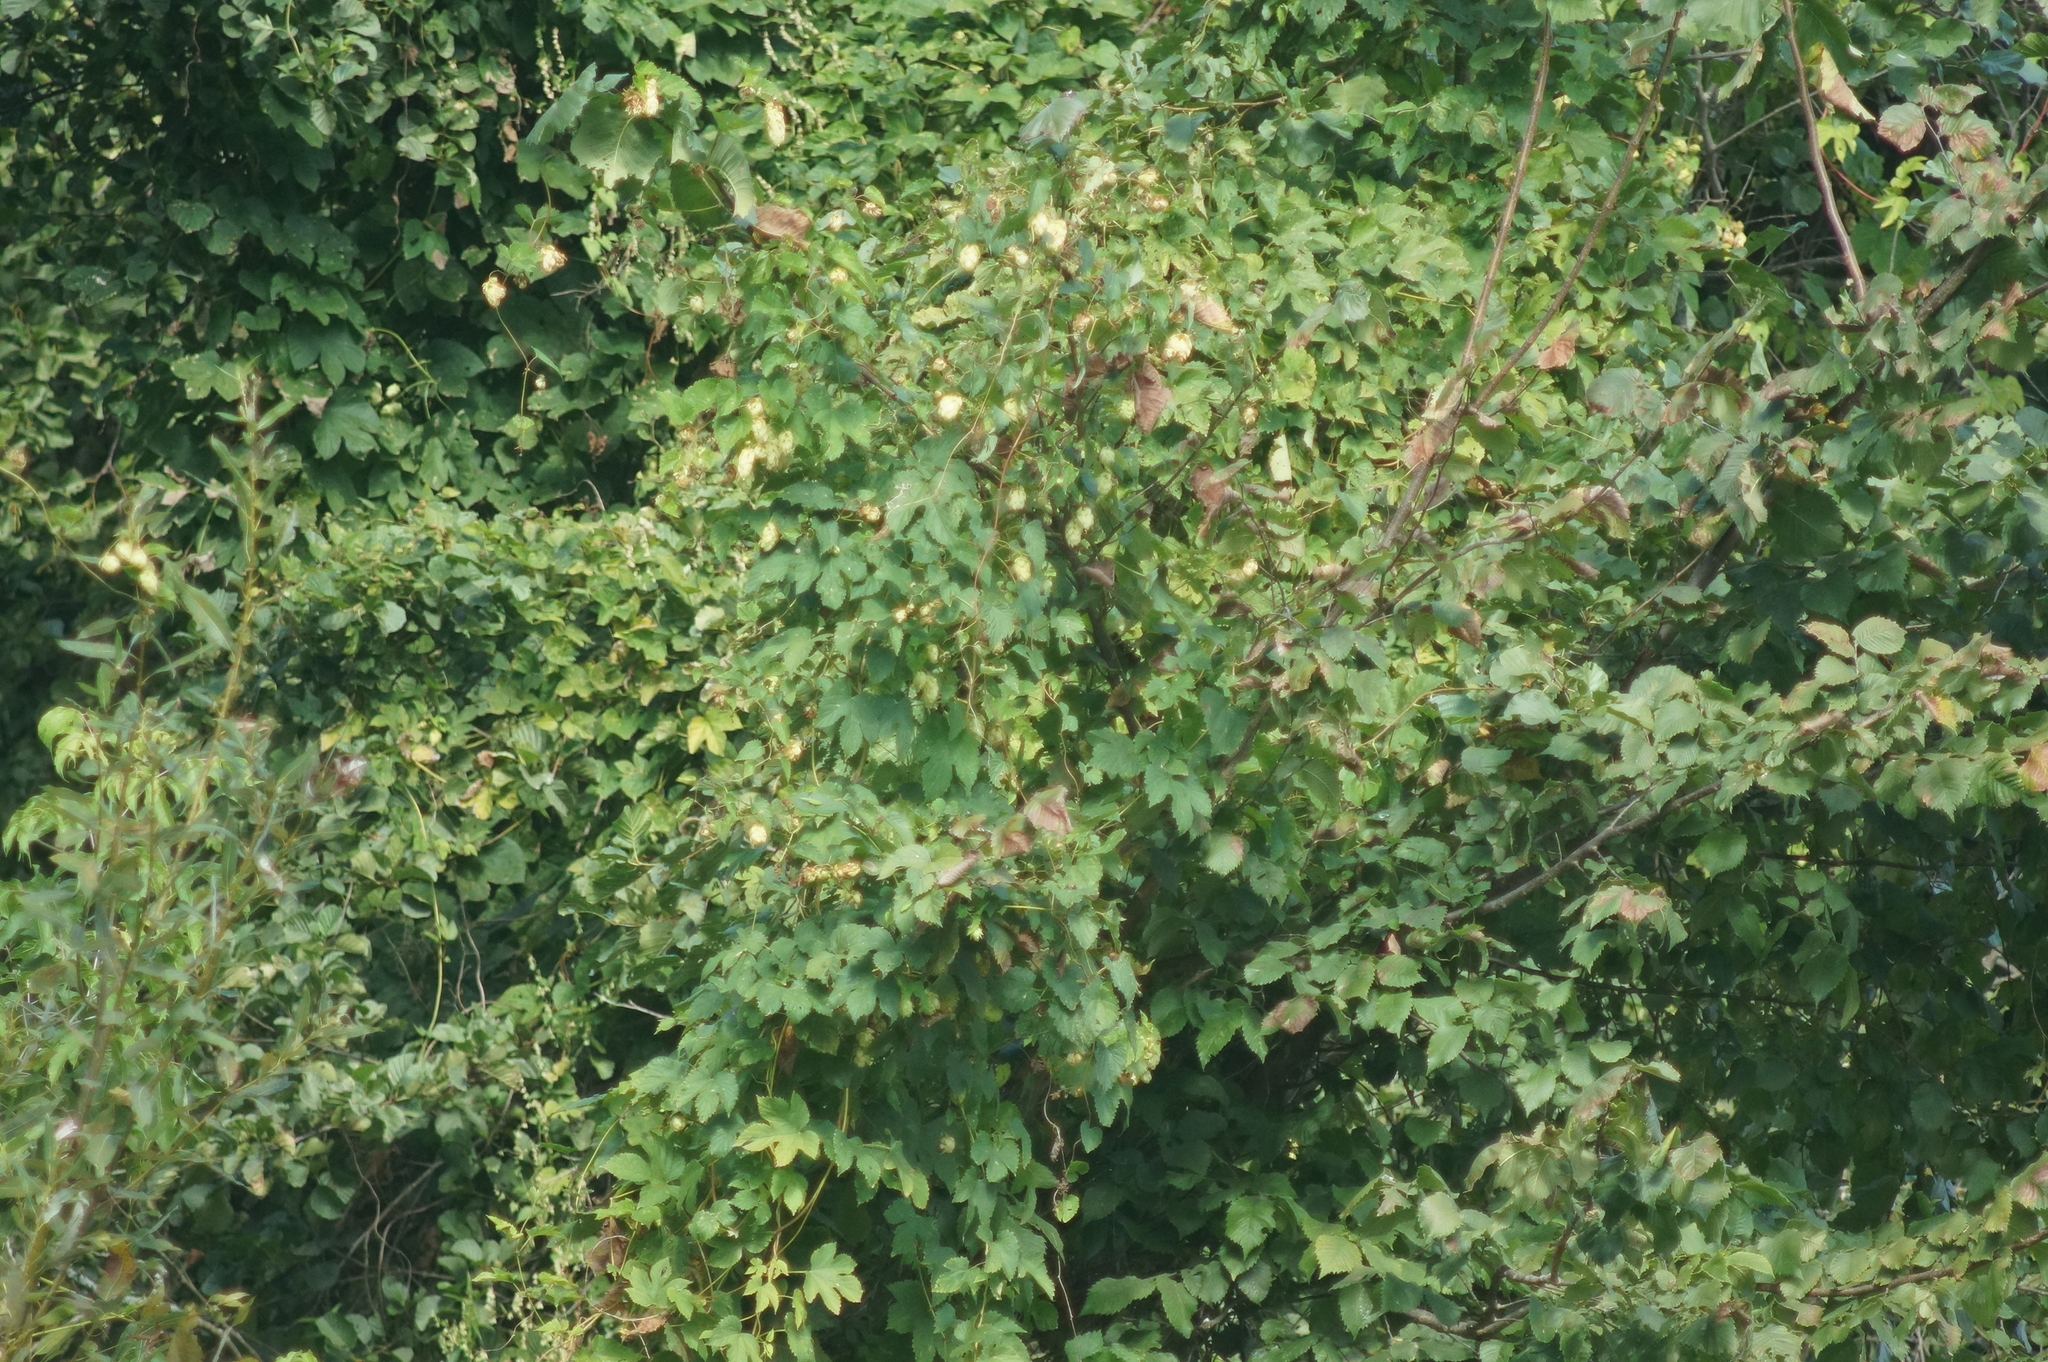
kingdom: Plantae
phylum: Tracheophyta
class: Magnoliopsida
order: Rosales
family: Cannabaceae
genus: Humulus
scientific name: Humulus lupulus
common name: Hop
